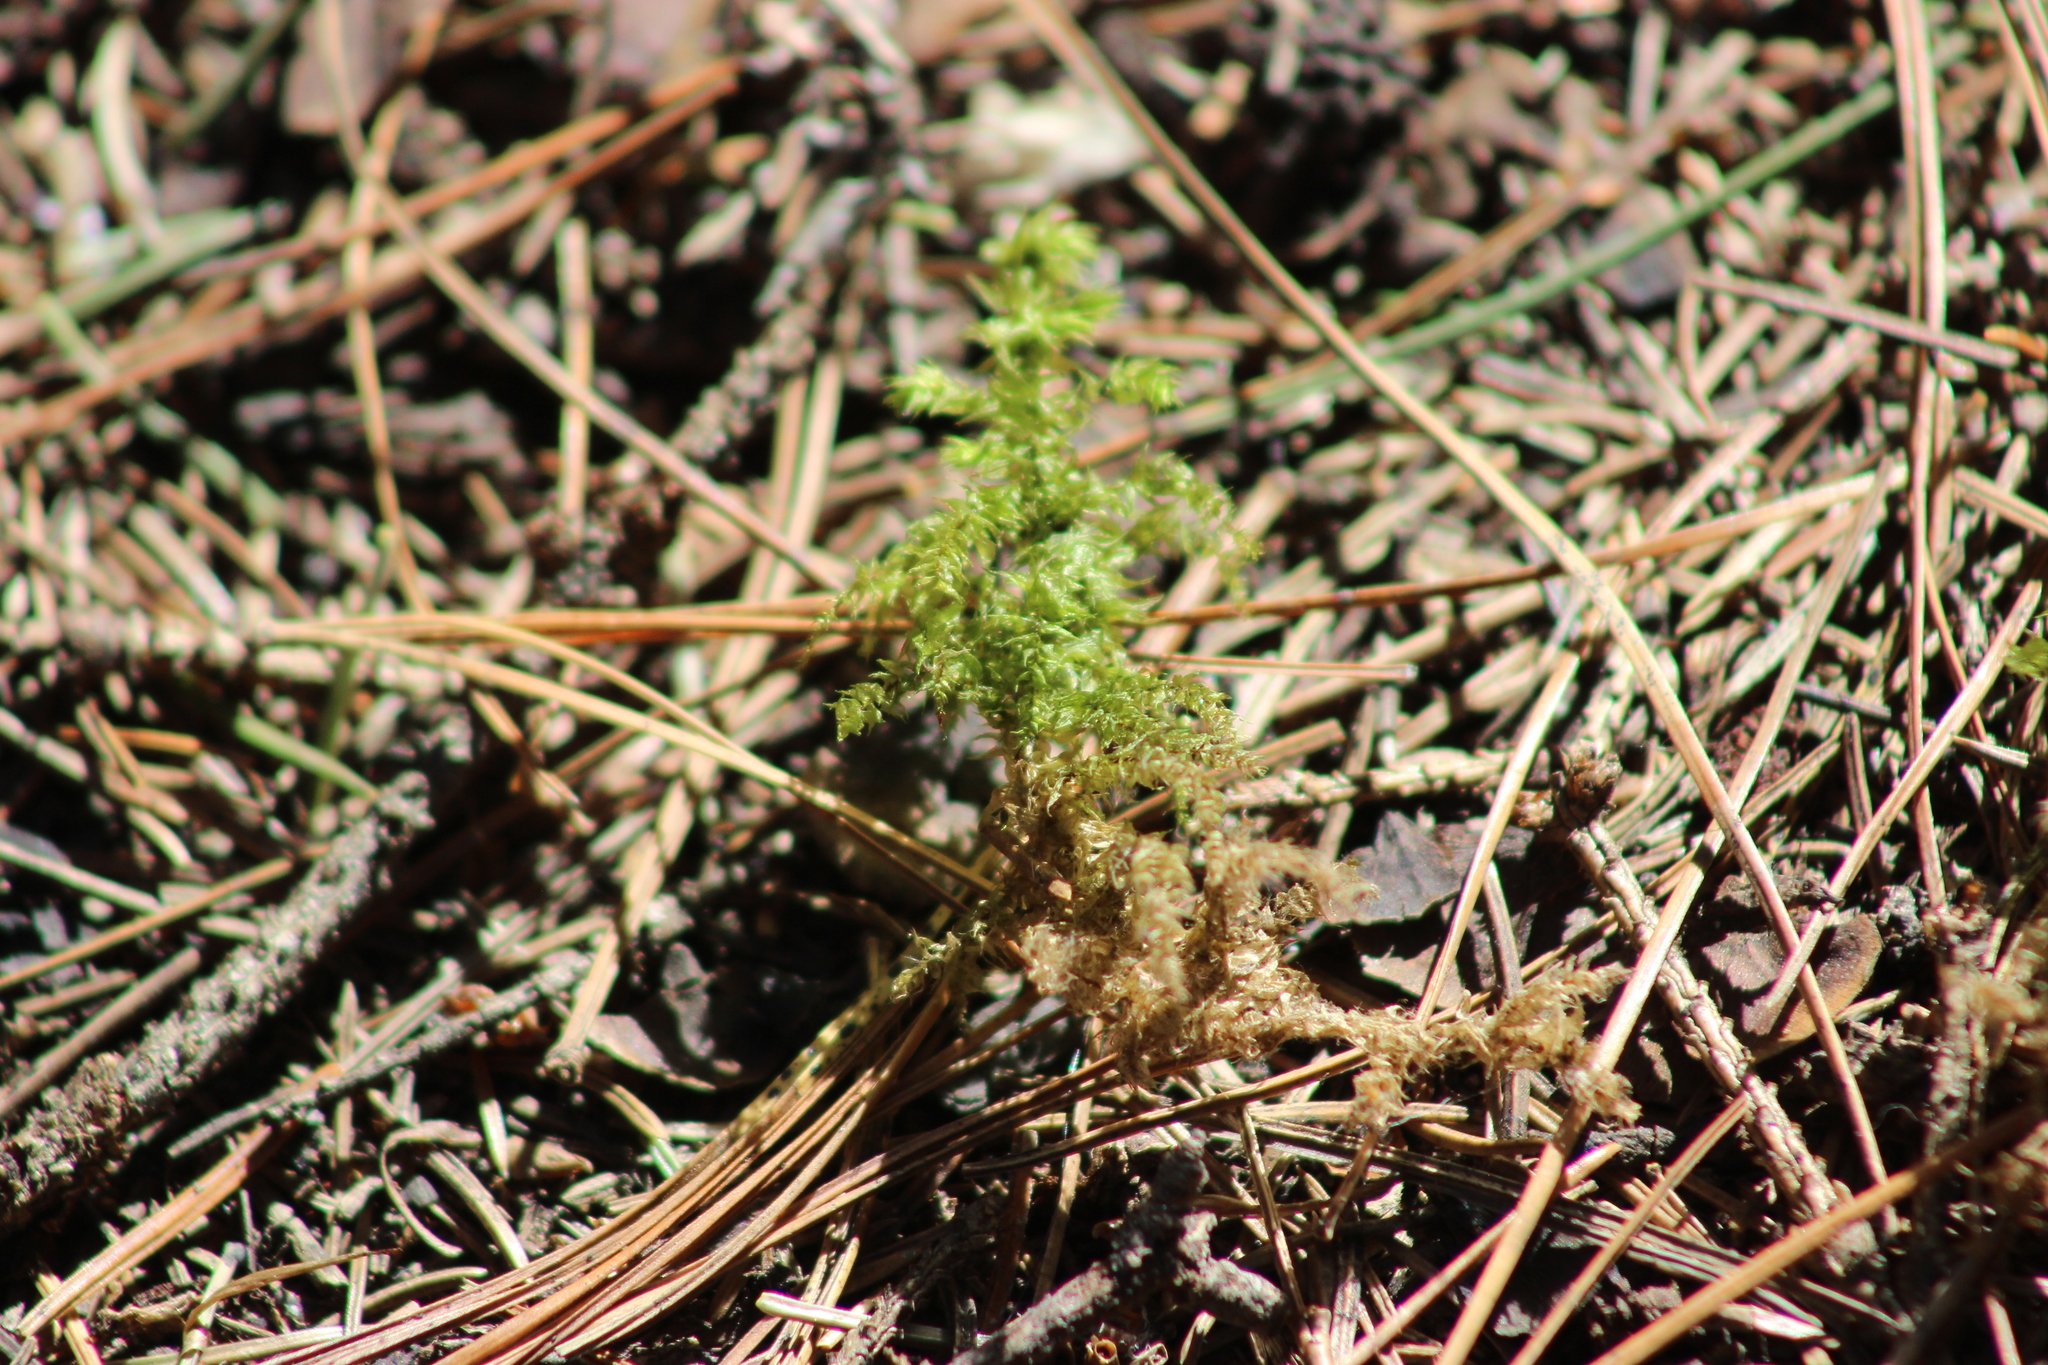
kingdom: Plantae
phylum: Bryophyta
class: Bryopsida
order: Hypnales
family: Hylocomiaceae
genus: Hylocomiadelphus
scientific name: Hylocomiadelphus triquetrus
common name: Rough goose neck moss
